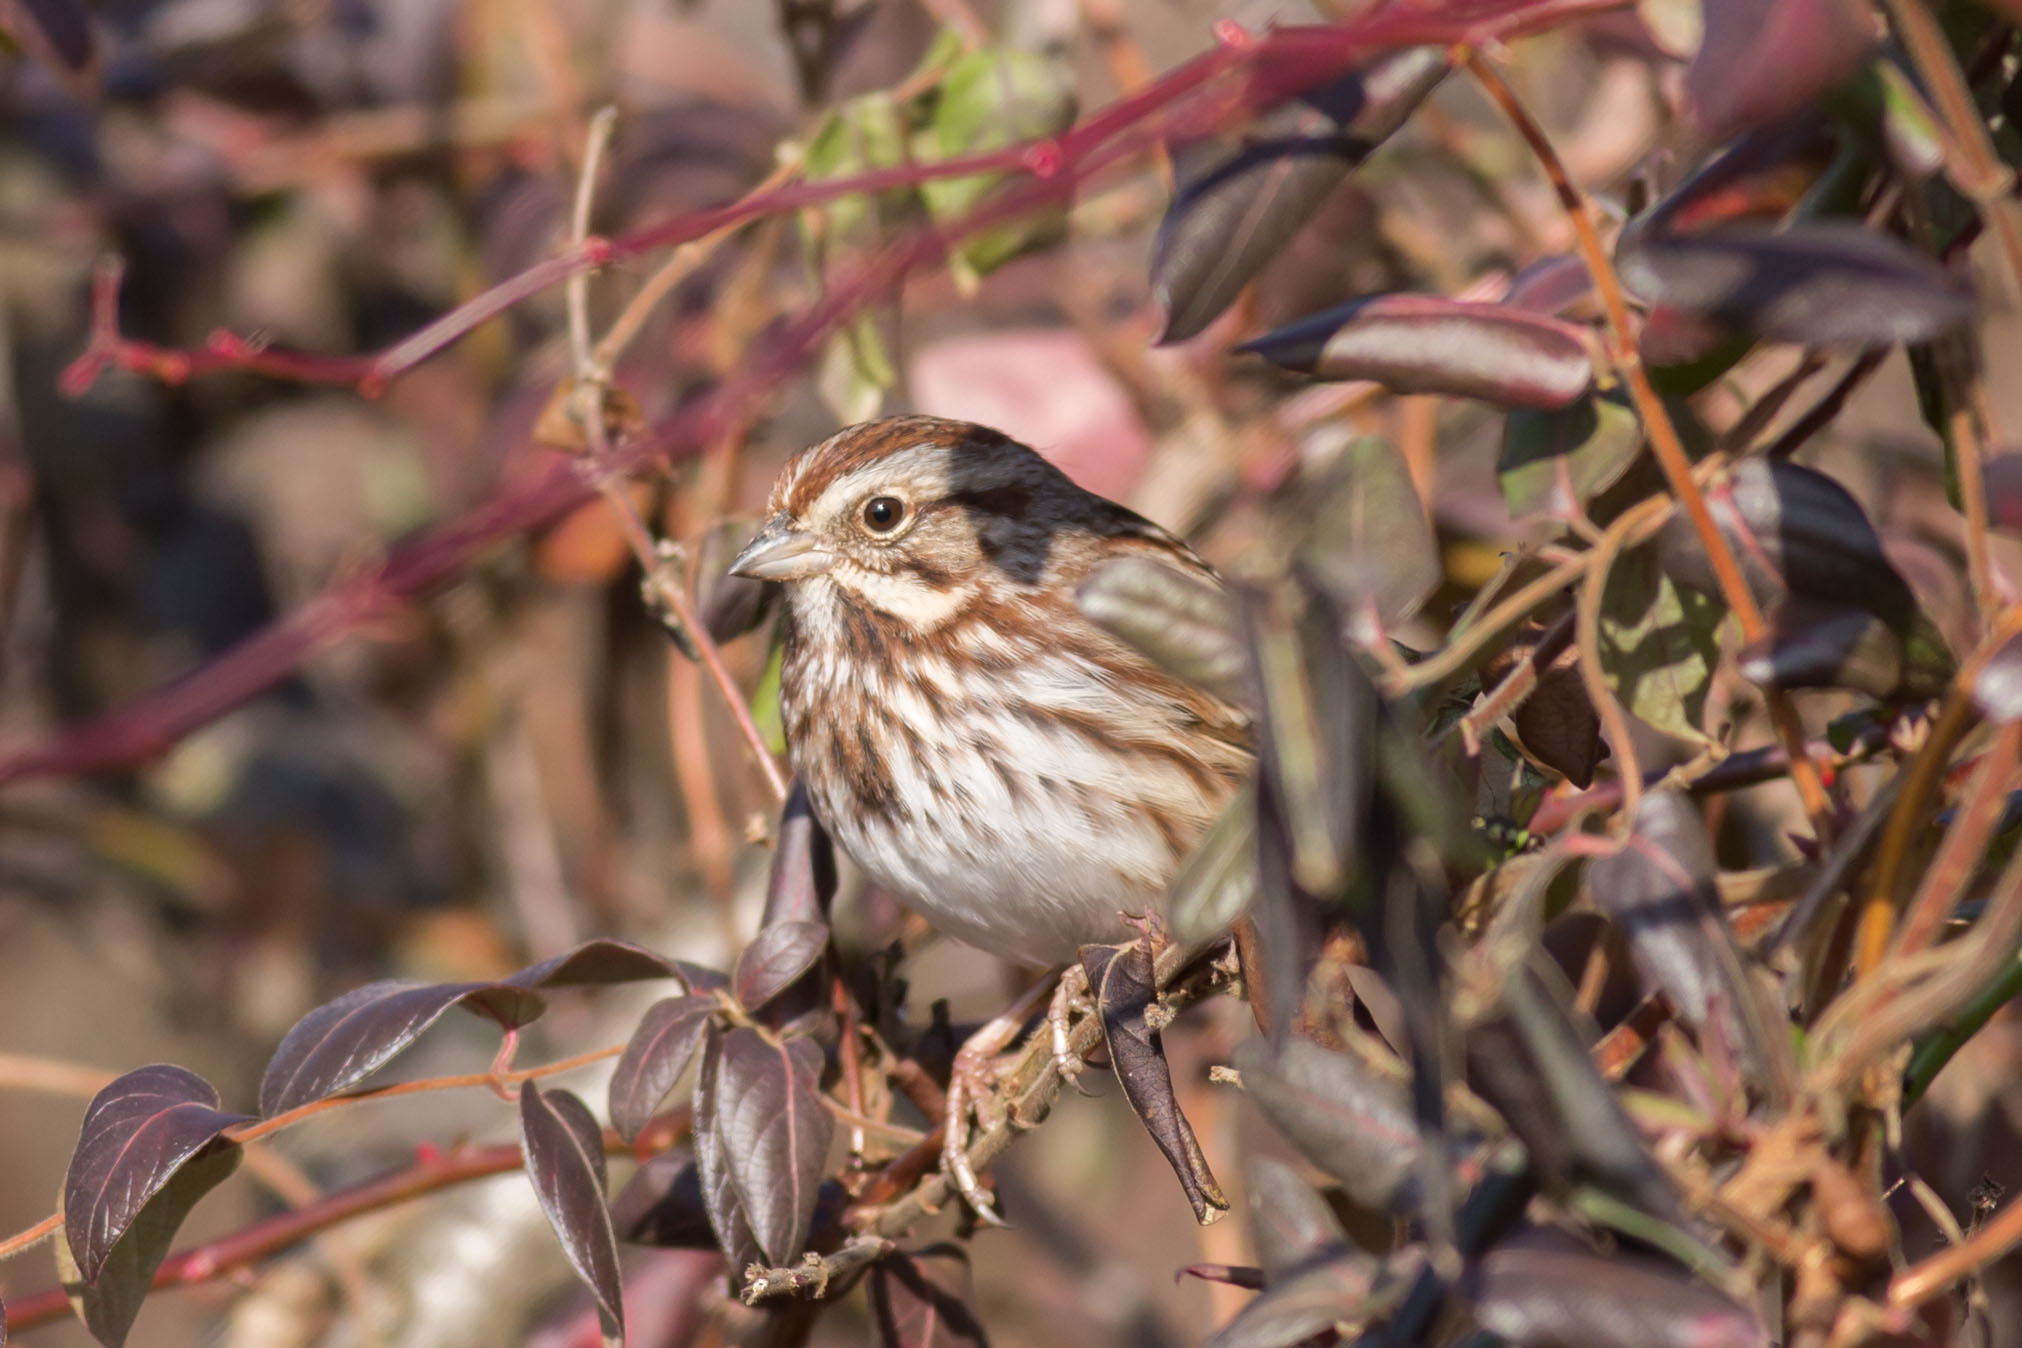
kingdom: Animalia
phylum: Chordata
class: Aves
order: Passeriformes
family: Passerellidae
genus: Melospiza
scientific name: Melospiza melodia
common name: Song sparrow
